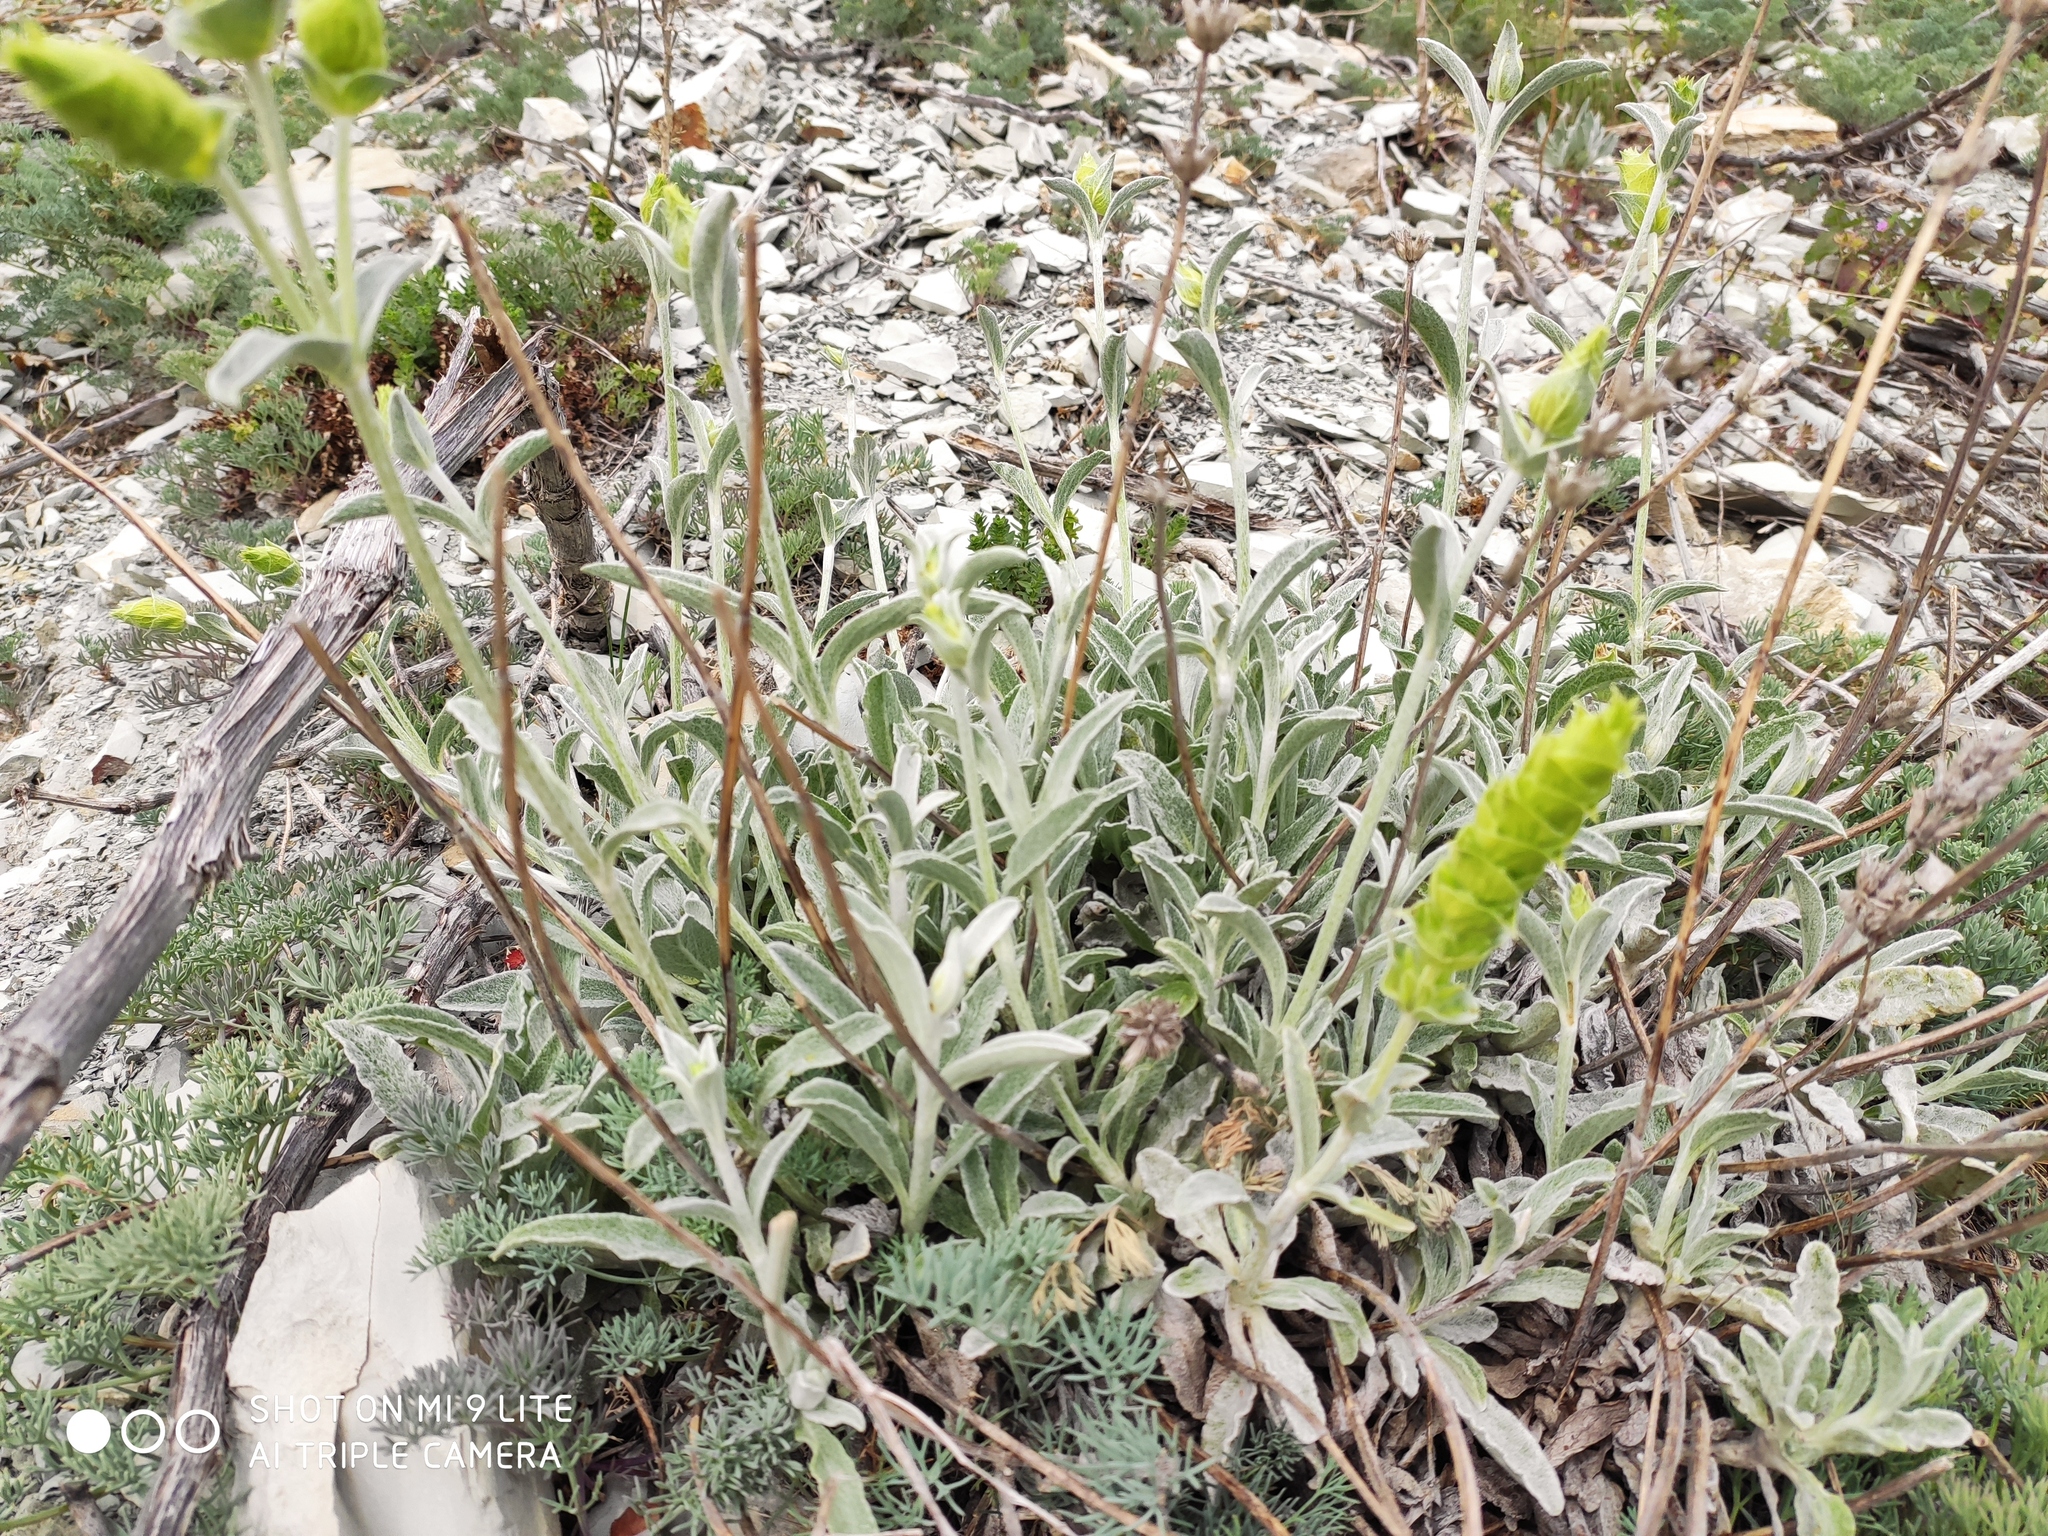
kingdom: Plantae
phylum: Tracheophyta
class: Magnoliopsida
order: Lamiales
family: Lamiaceae
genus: Sideritis
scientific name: Sideritis euxina
